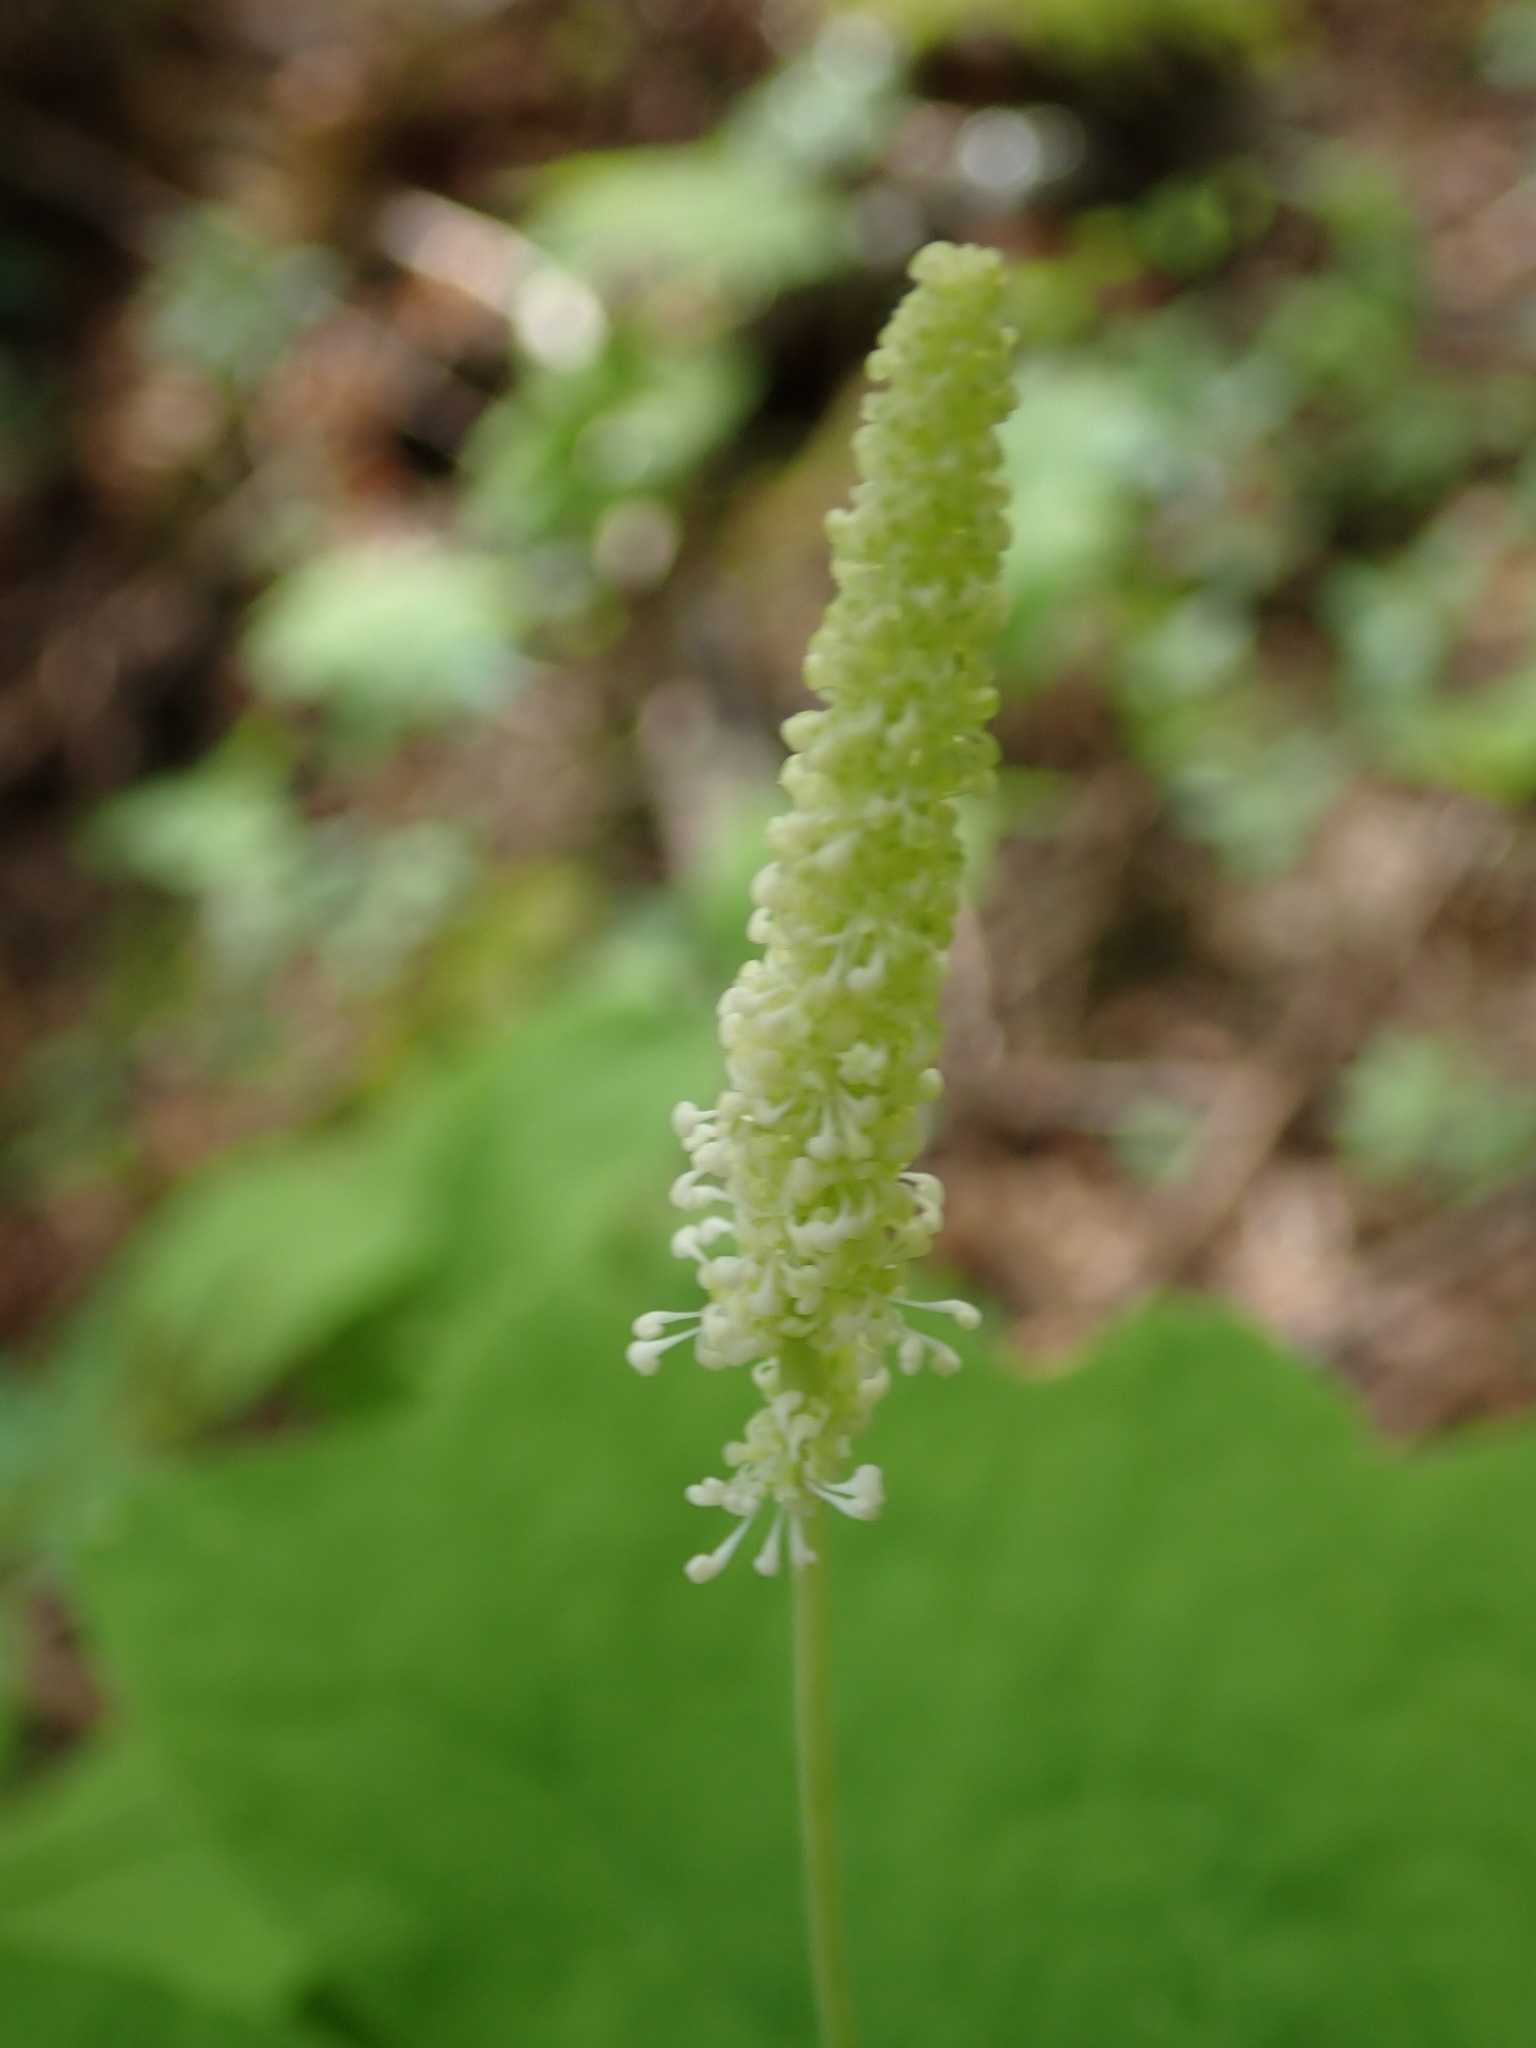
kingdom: Plantae
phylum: Tracheophyta
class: Magnoliopsida
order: Ranunculales
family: Berberidaceae
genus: Achlys
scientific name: Achlys triphylla
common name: Vanilla-leaf
